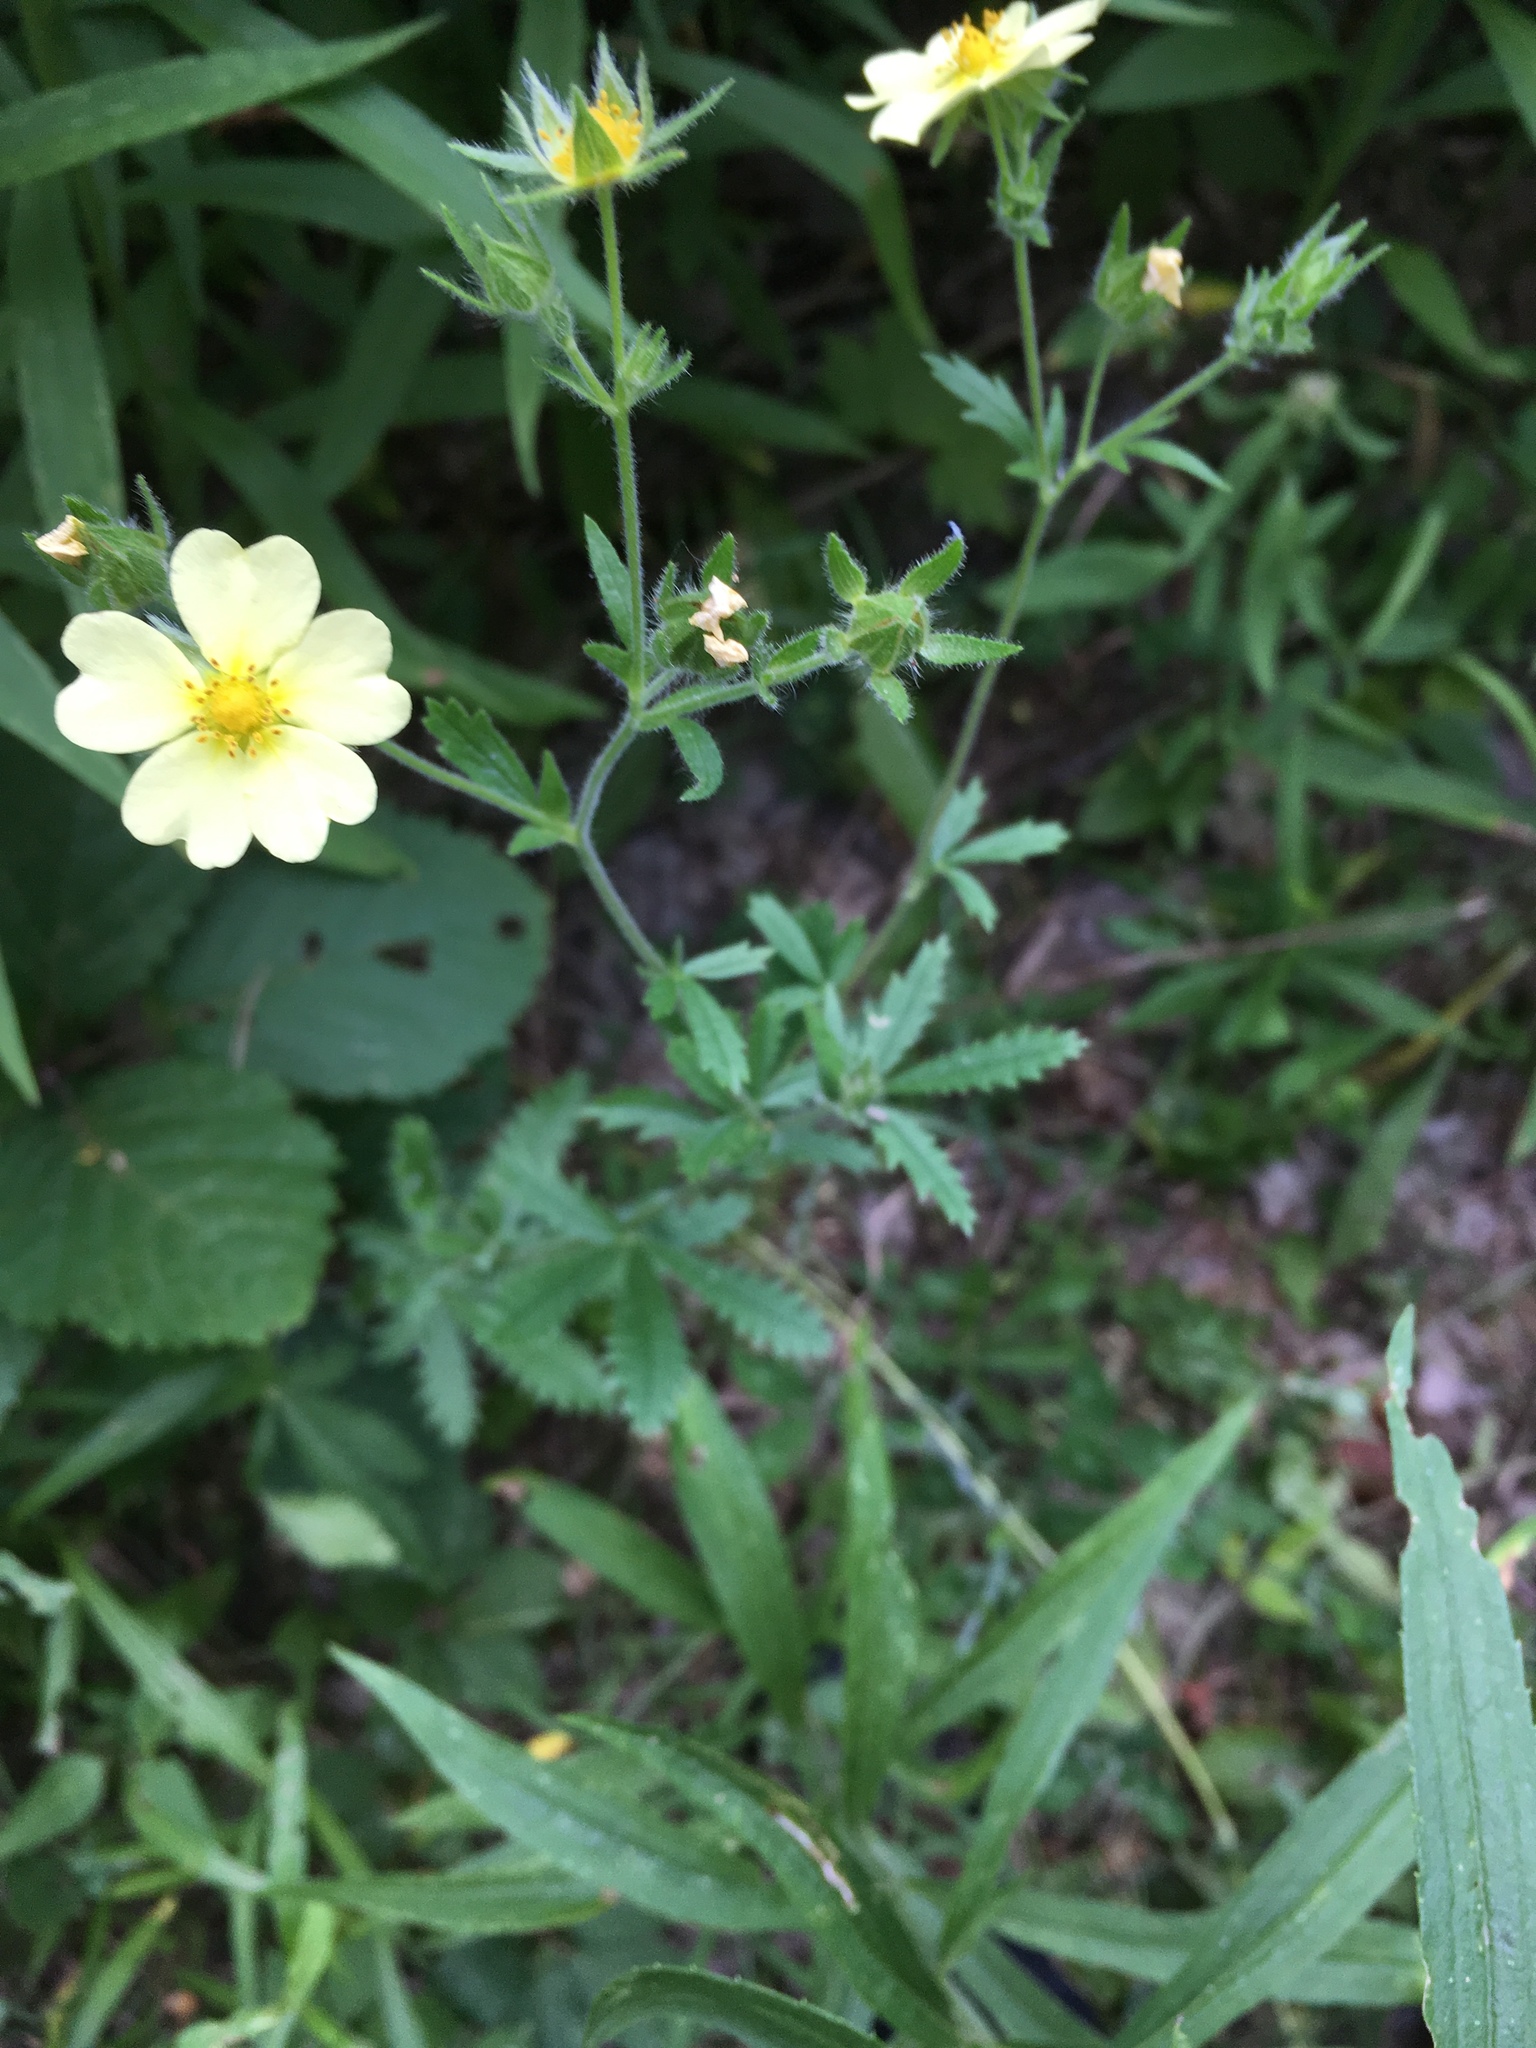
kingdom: Plantae
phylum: Tracheophyta
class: Magnoliopsida
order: Rosales
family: Rosaceae
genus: Potentilla
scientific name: Potentilla recta
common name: Sulphur cinquefoil
